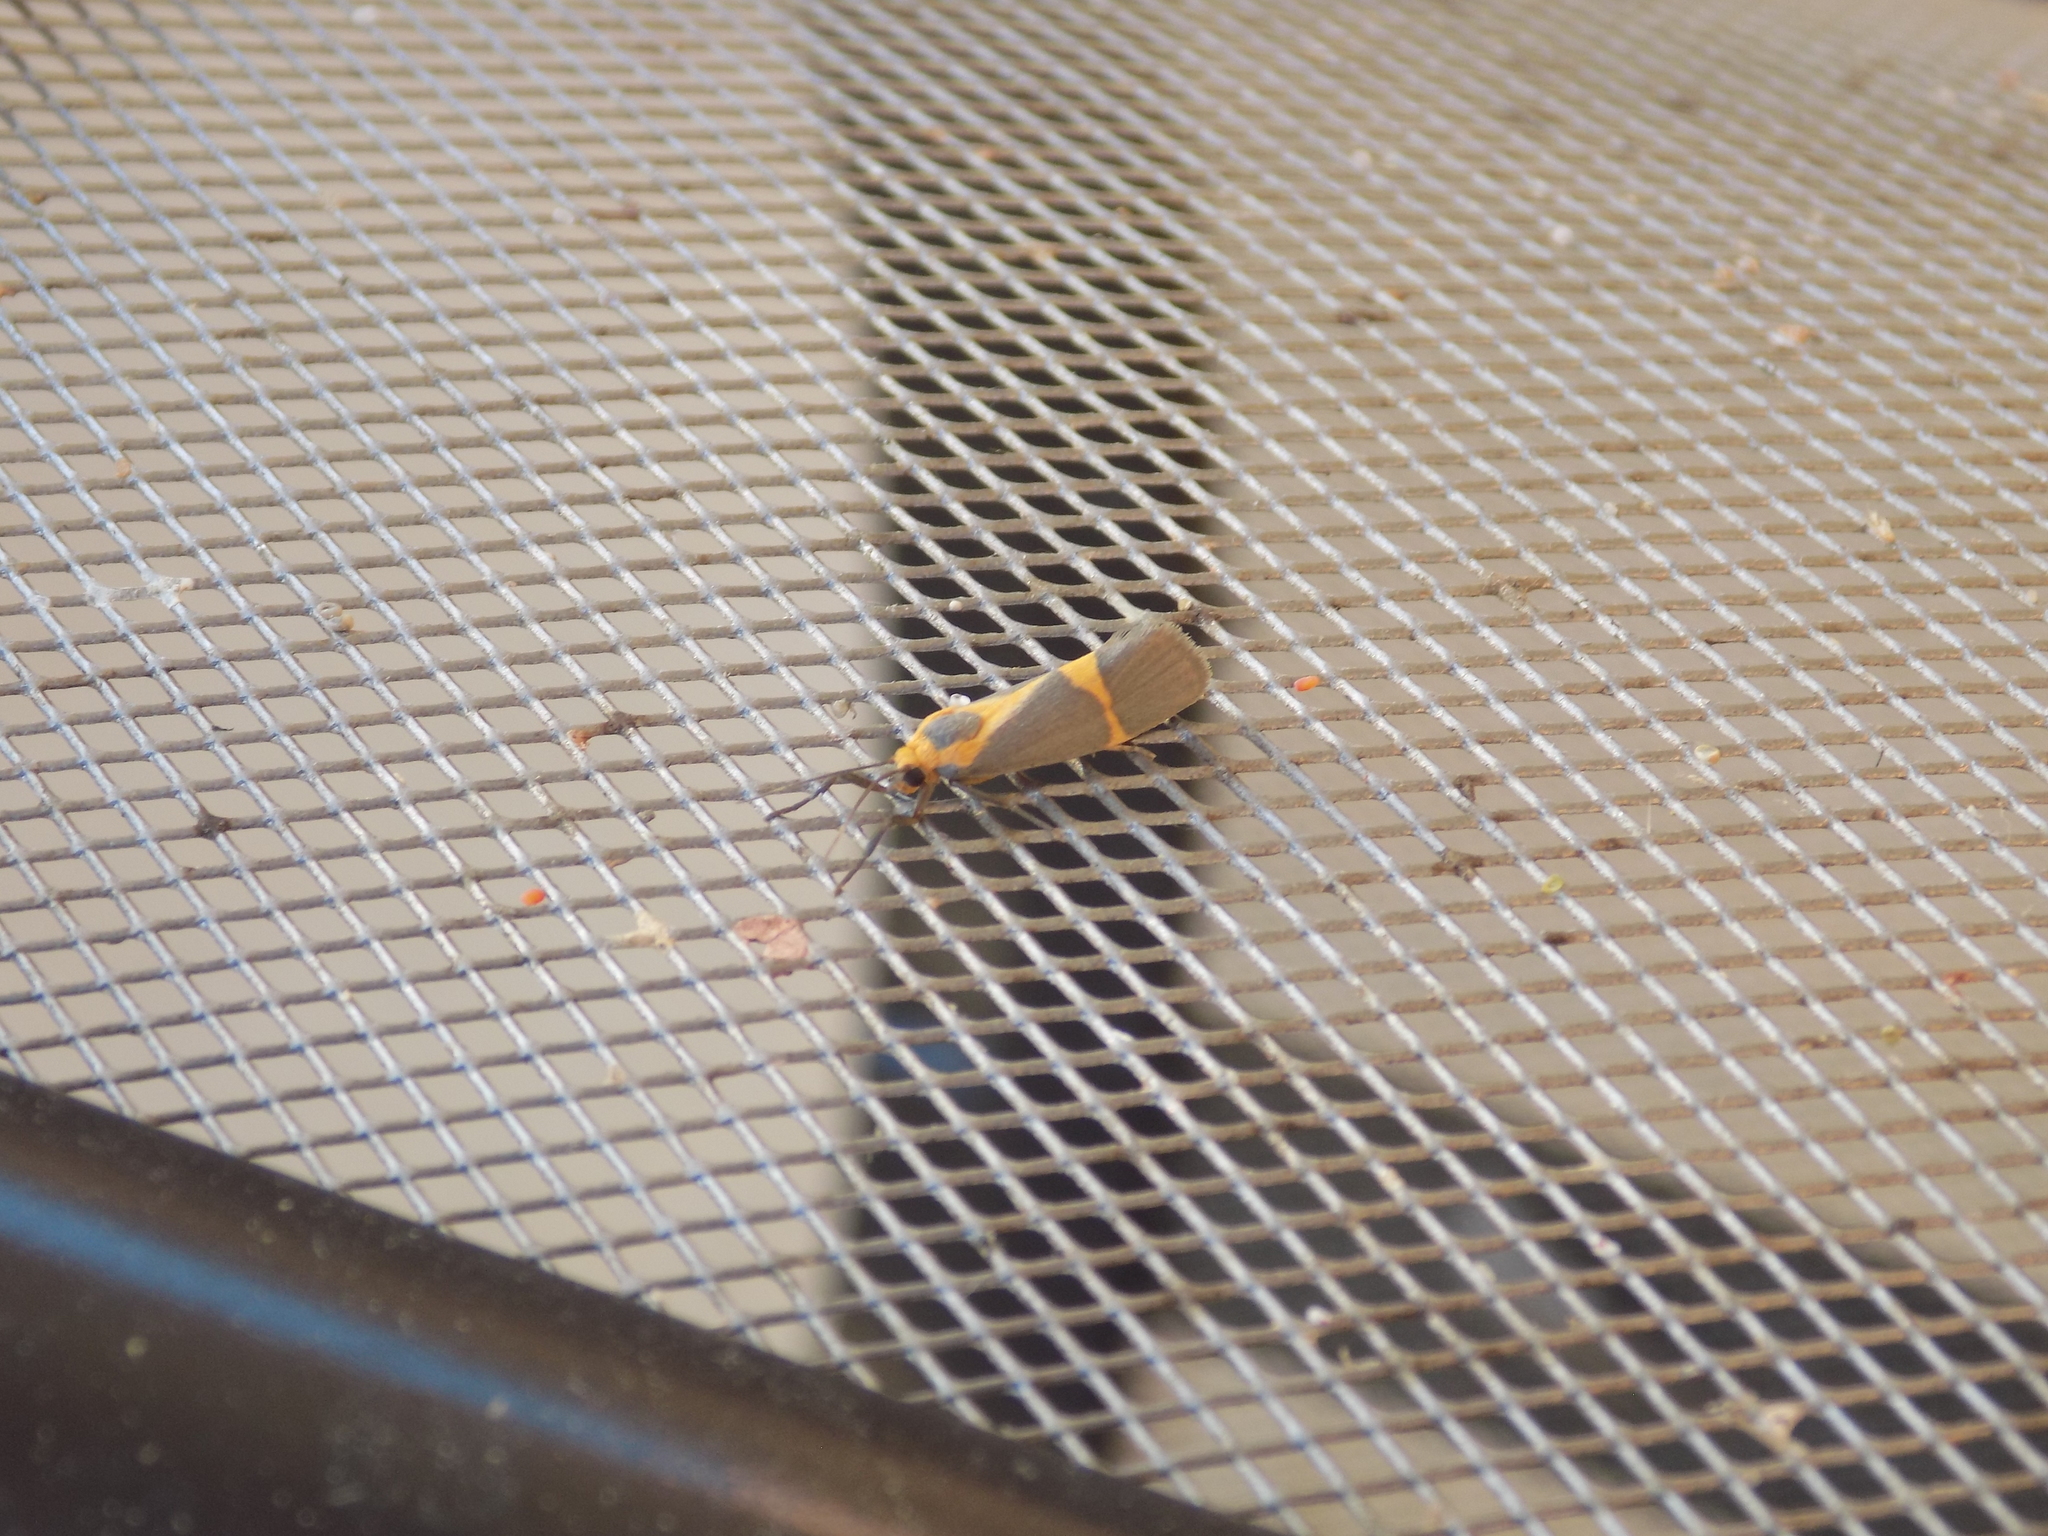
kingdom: Animalia
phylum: Arthropoda
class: Insecta
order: Lepidoptera
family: Erebidae
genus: Cisthene
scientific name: Cisthene tenuifascia
